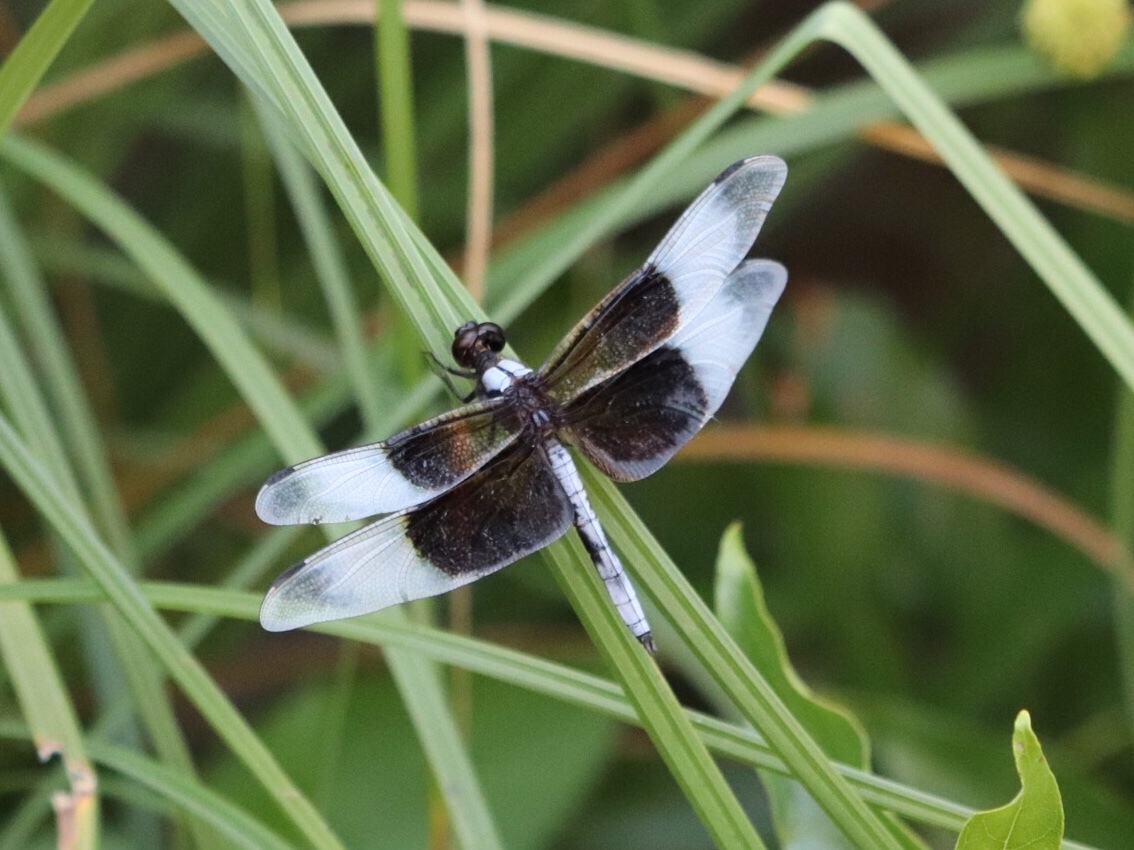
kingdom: Animalia
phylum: Arthropoda
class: Insecta
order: Odonata
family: Libellulidae
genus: Libellula
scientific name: Libellula luctuosa
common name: Widow skimmer
